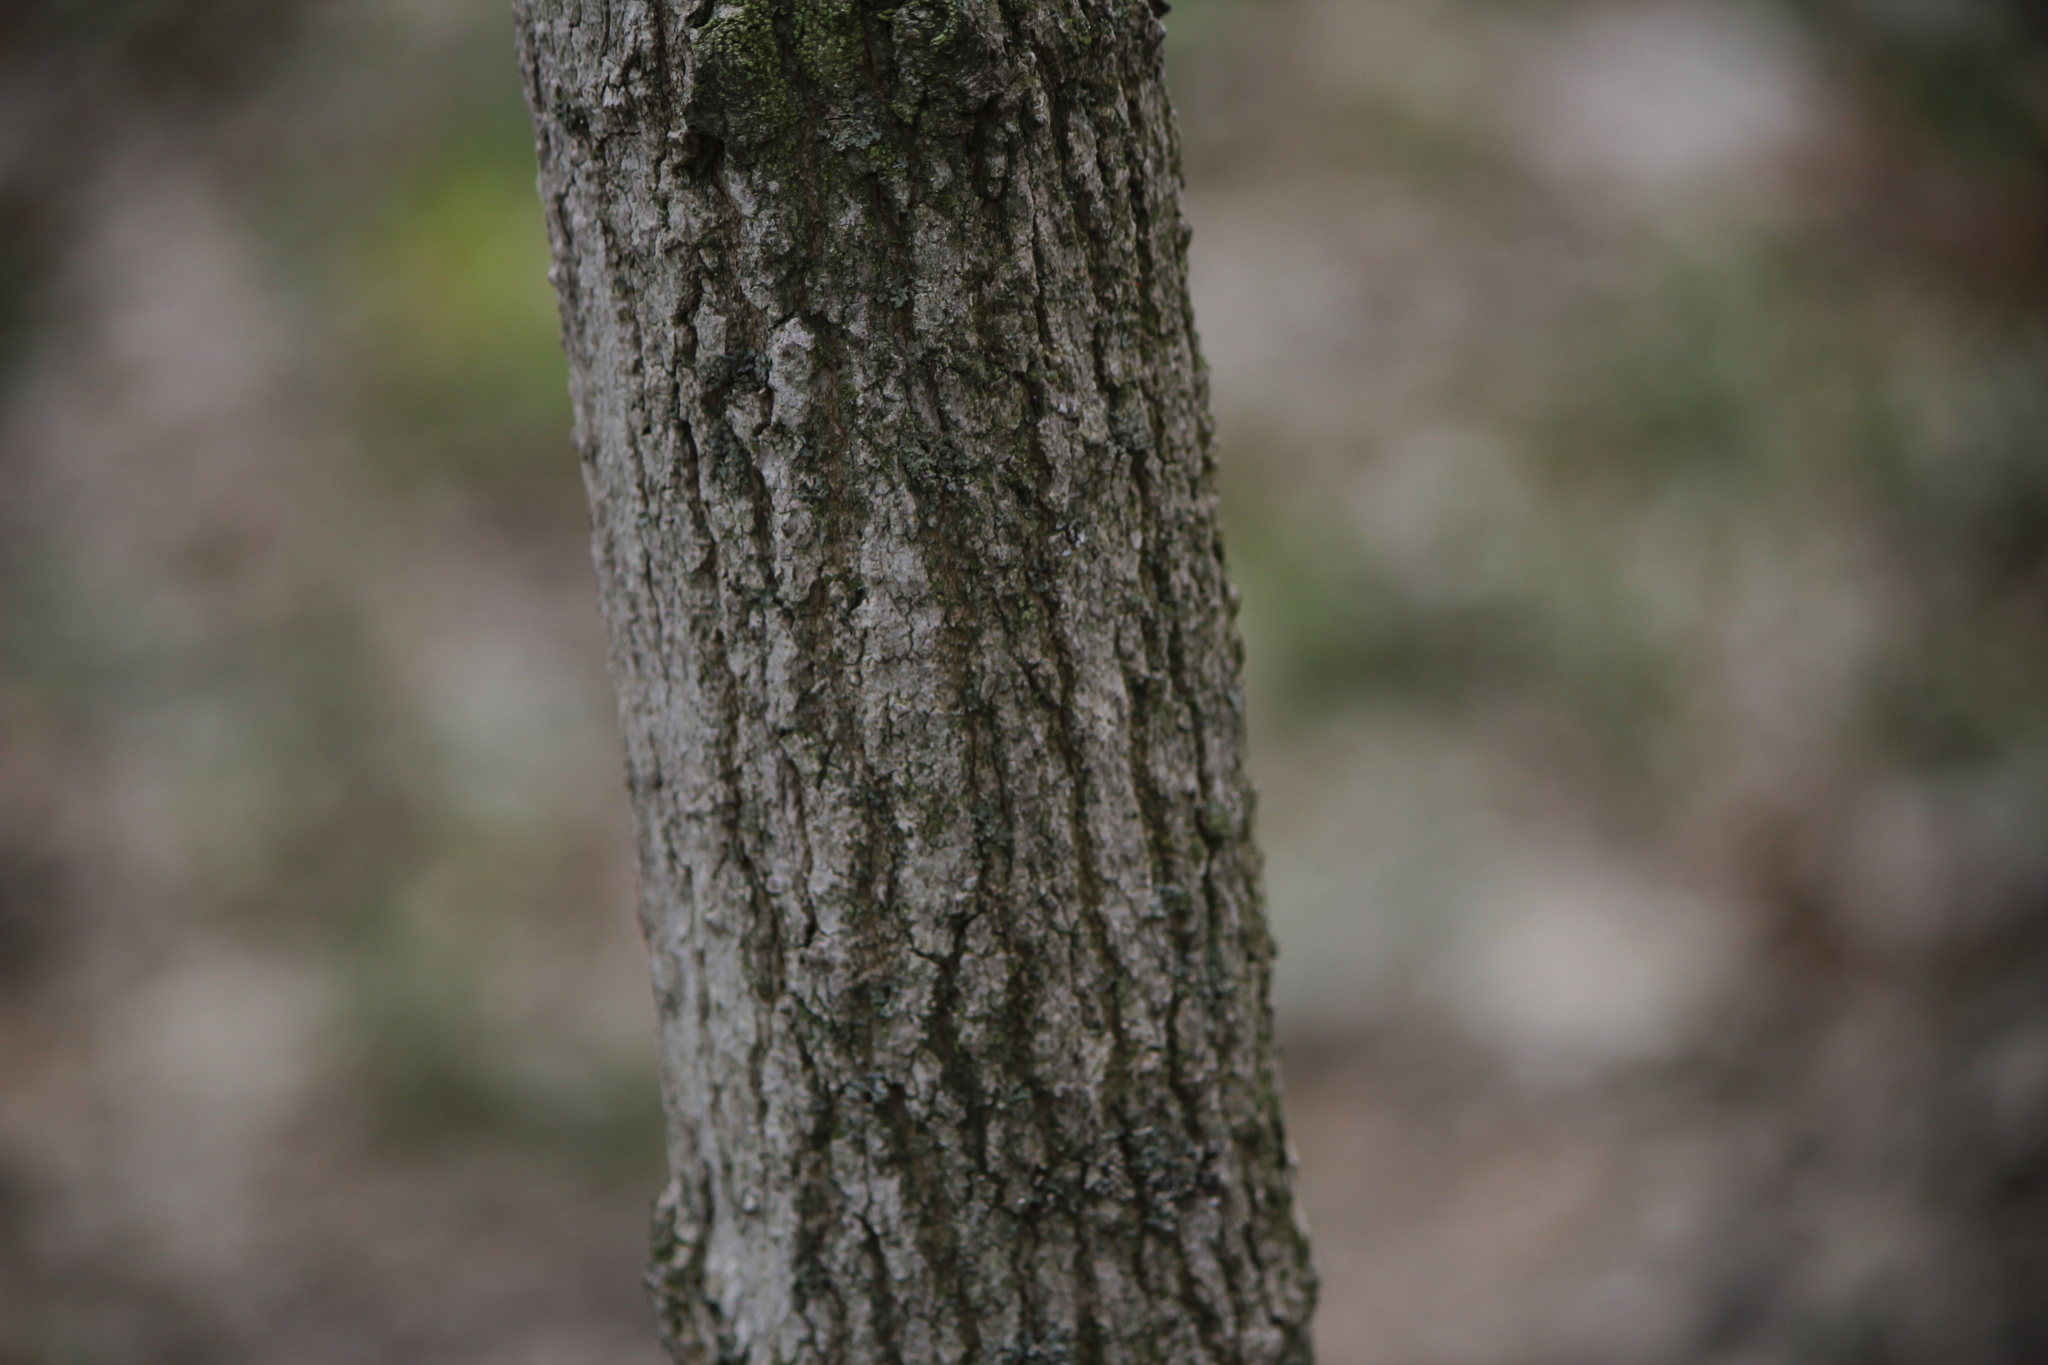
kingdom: Plantae
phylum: Tracheophyta
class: Magnoliopsida
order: Sapindales
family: Sapindaceae
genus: Acer
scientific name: Acer nigrum
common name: Black maple
